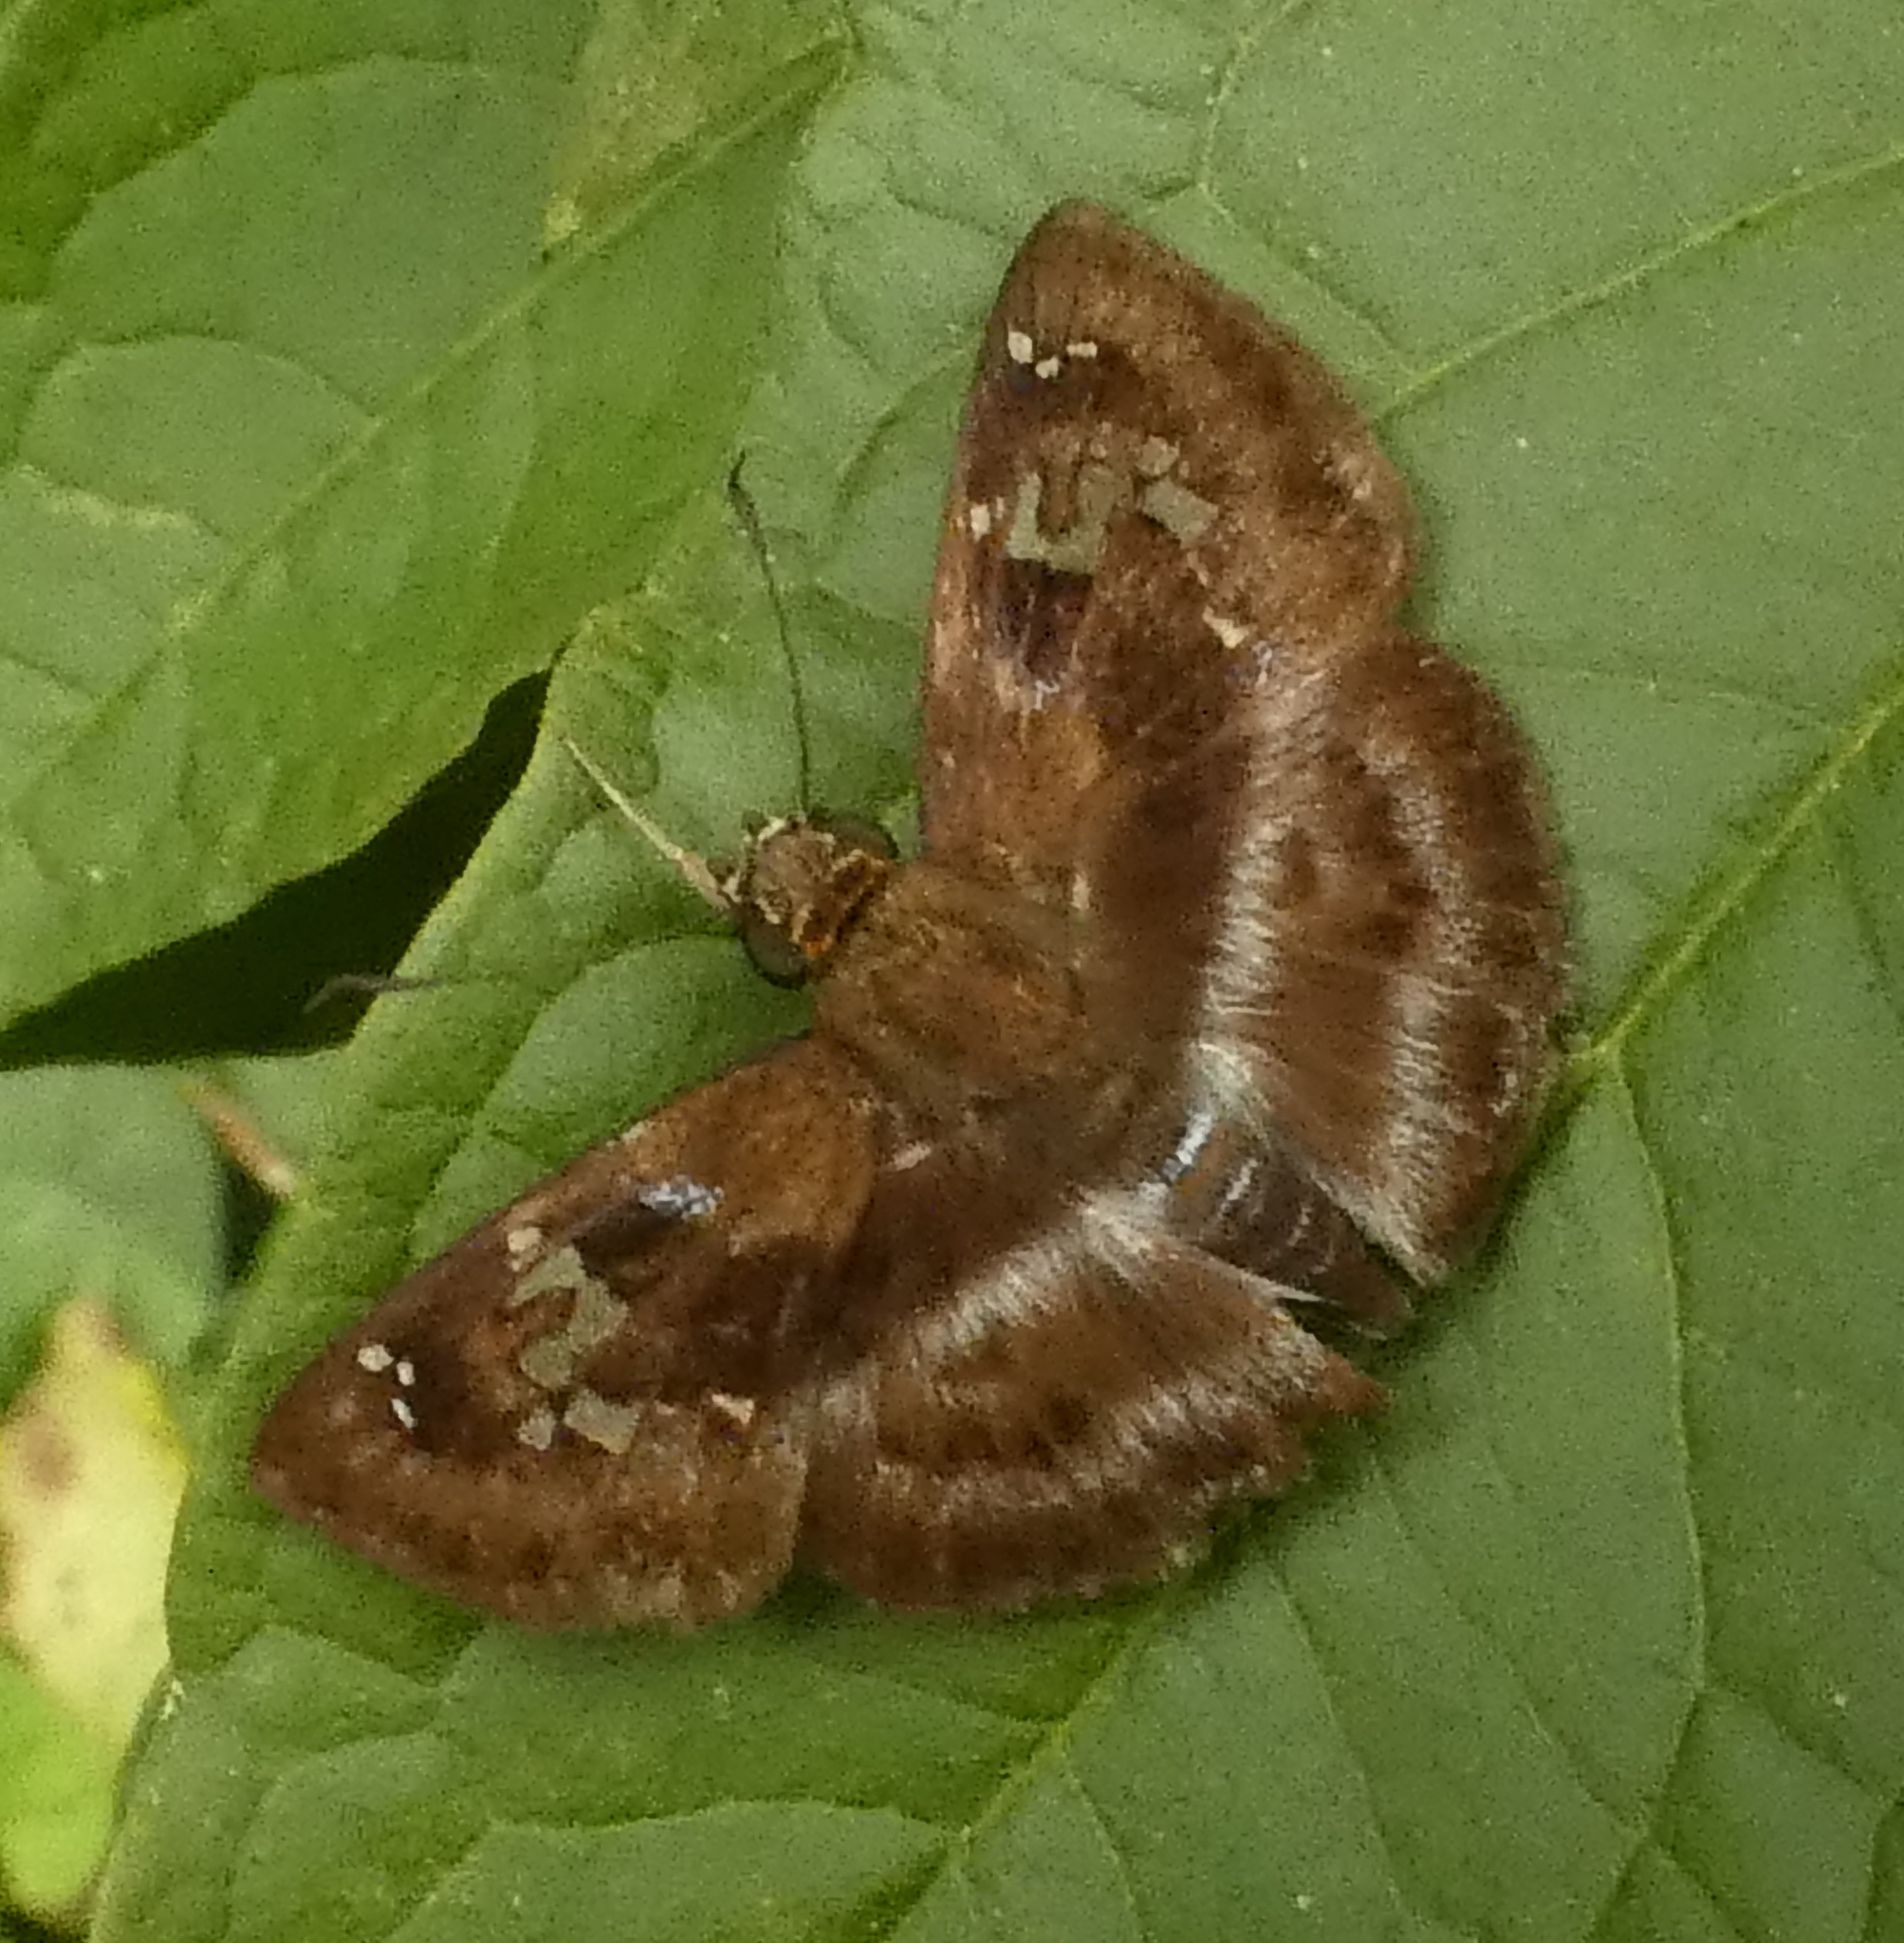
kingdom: Animalia
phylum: Arthropoda
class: Insecta
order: Lepidoptera
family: Hesperiidae
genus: Quadrus
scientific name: Quadrus cerialis
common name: Common blue-skipper
